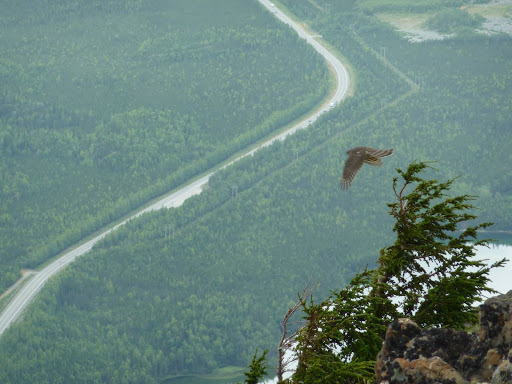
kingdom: Animalia
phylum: Chordata
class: Aves
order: Accipitriformes
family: Accipitridae
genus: Accipiter
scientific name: Accipiter striatus
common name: Sharp-shinned hawk
